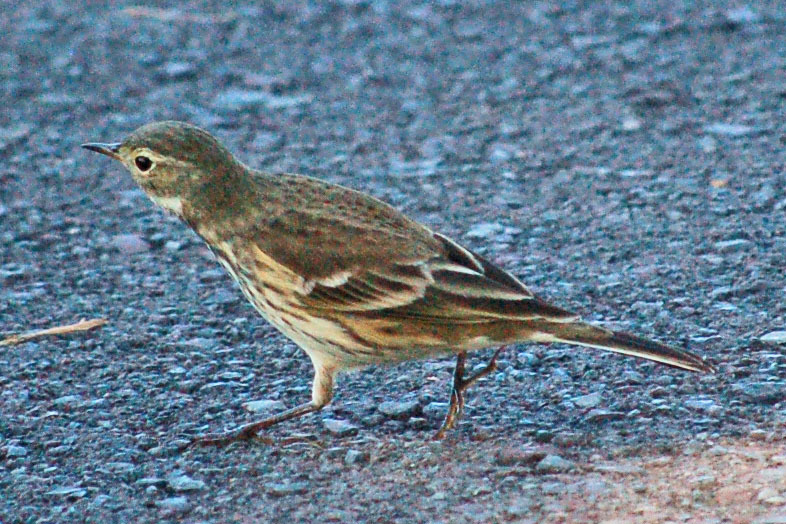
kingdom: Animalia
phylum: Chordata
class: Aves
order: Passeriformes
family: Motacillidae
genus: Anthus
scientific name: Anthus rubescens
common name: Buff-bellied pipit
